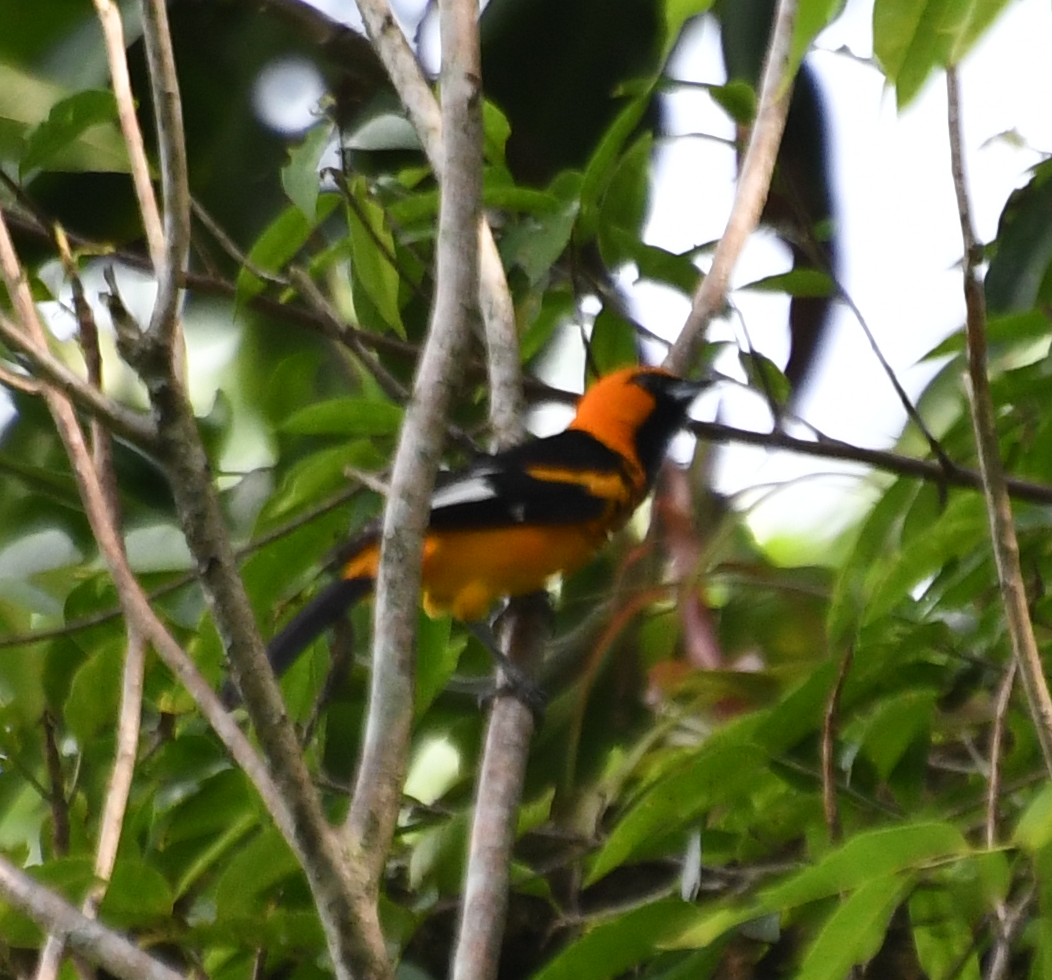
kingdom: Animalia
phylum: Chordata
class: Aves
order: Passeriformes
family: Icteridae
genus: Icterus
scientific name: Icterus pectoralis
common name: Spot-breasted oriole
